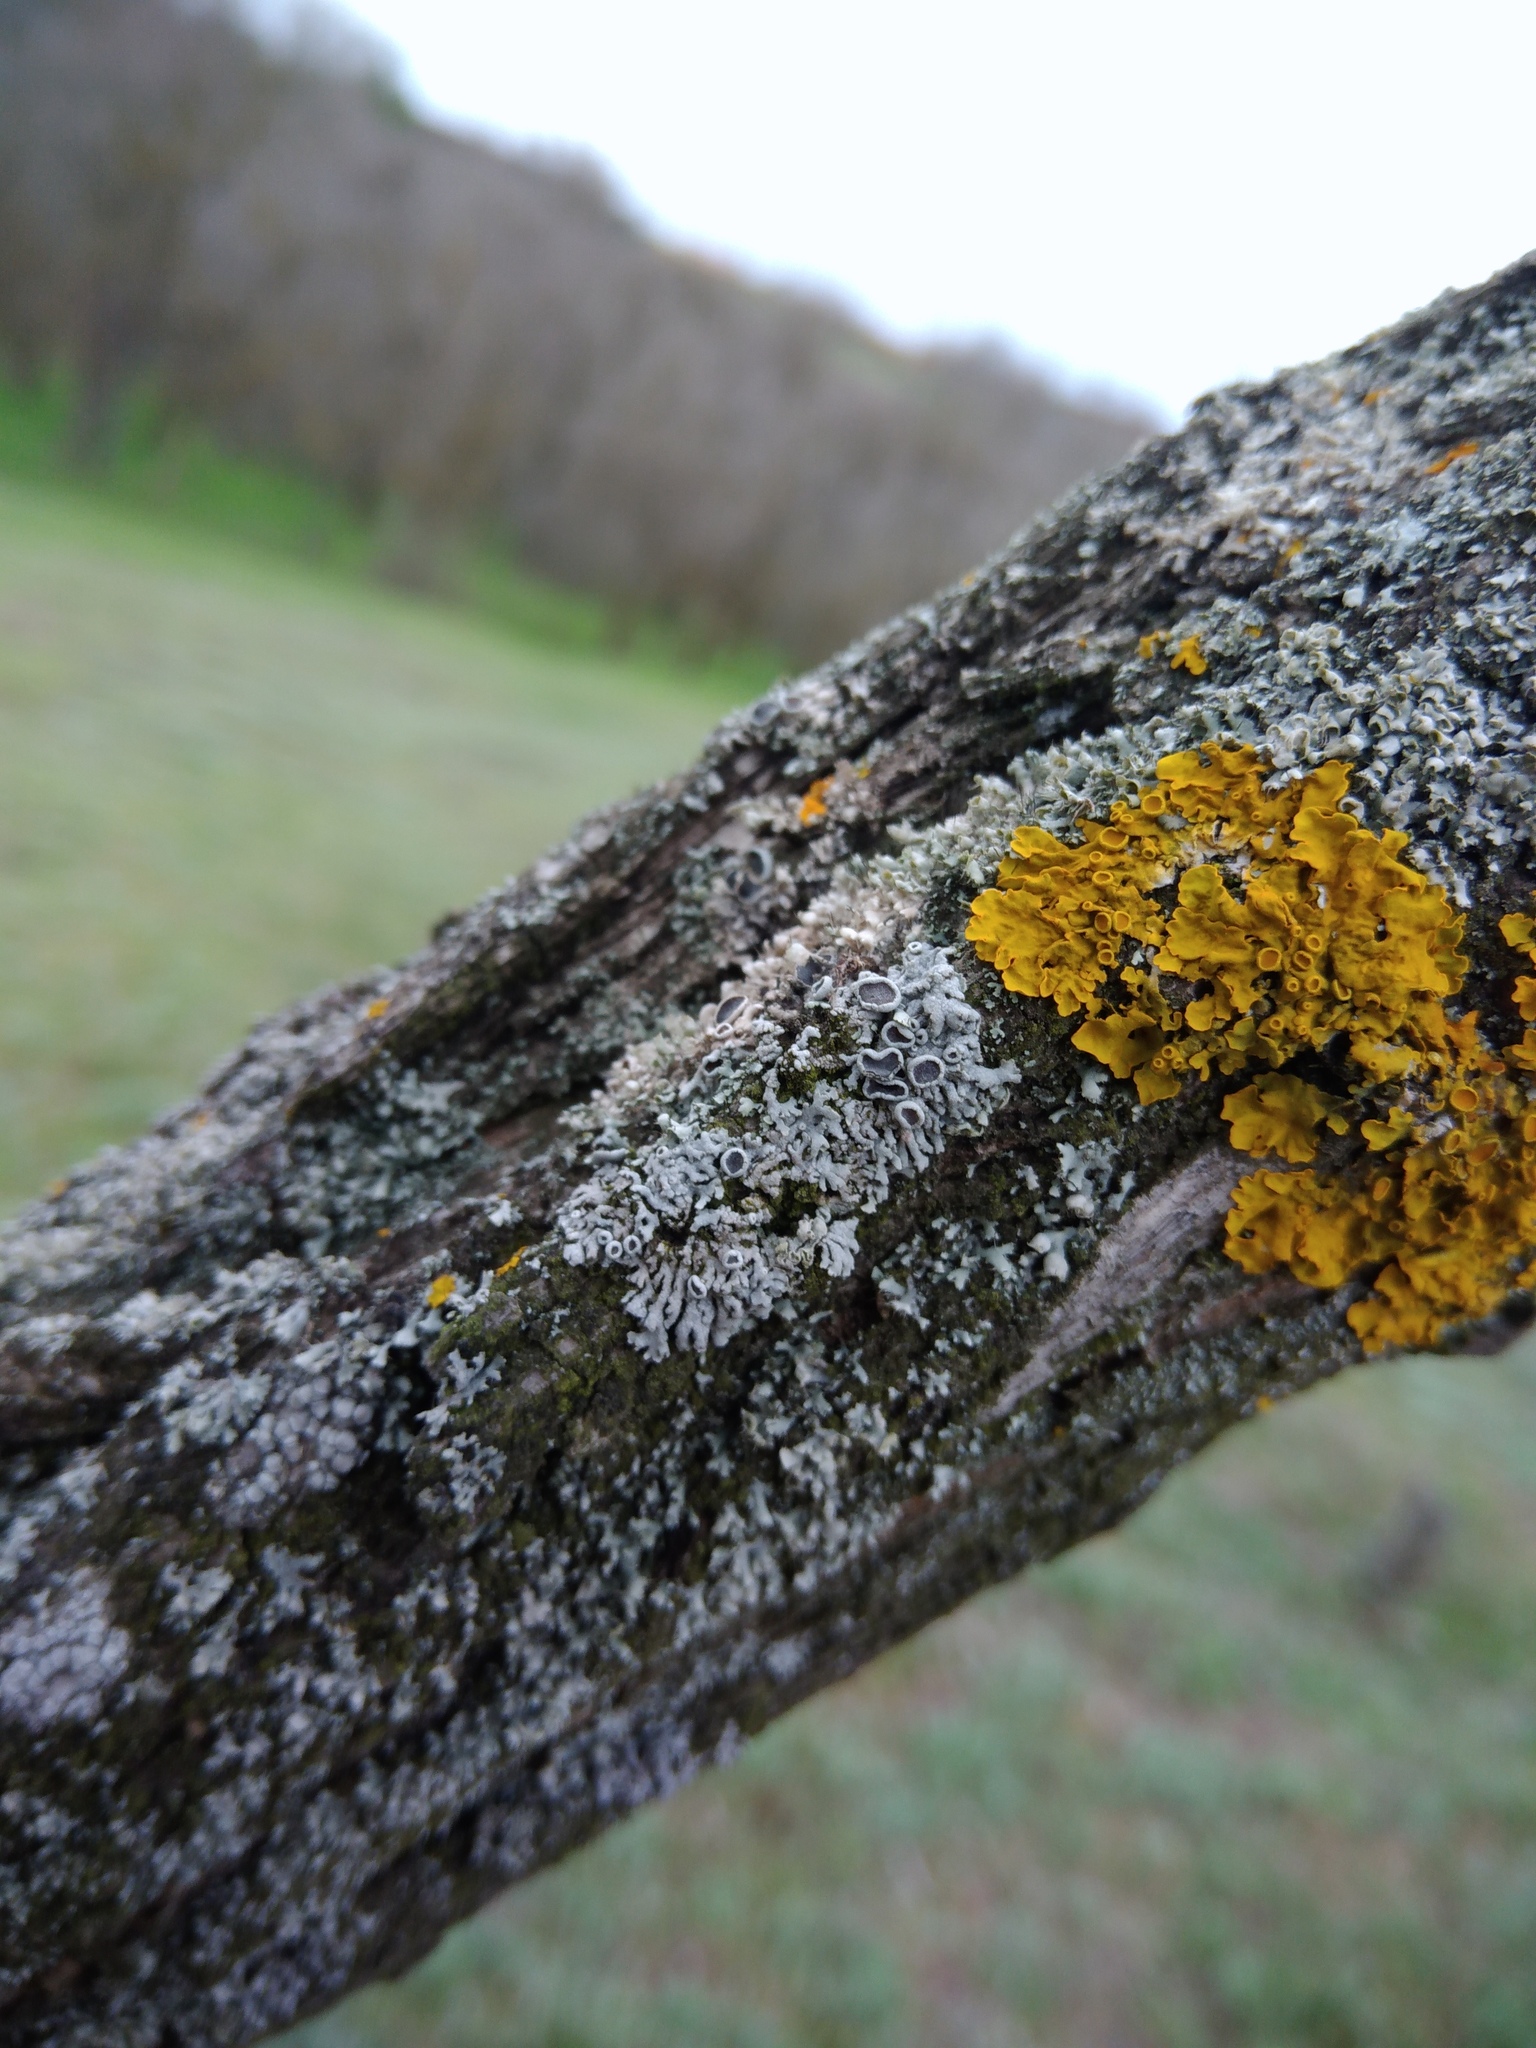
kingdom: Fungi
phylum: Ascomycota
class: Lecanoromycetes
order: Caliciales
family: Physciaceae
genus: Physcia
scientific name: Physcia stellaris
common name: Star rosette lichen
